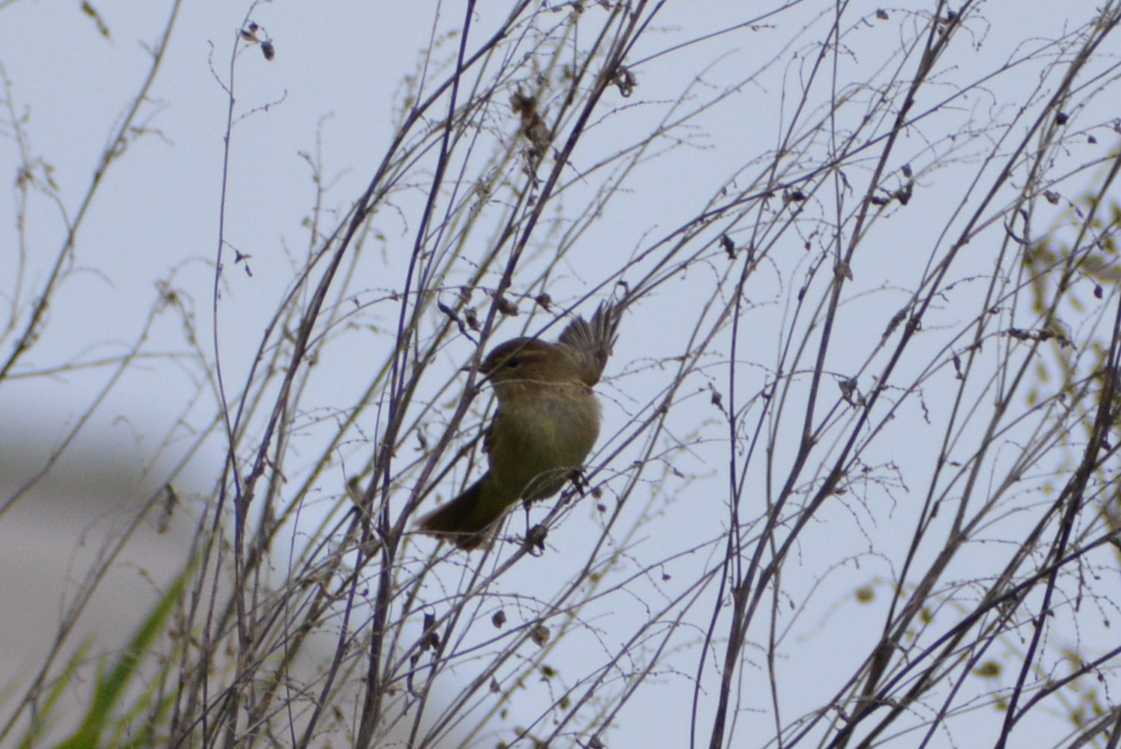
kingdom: Animalia
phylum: Chordata
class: Aves
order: Passeriformes
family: Phylloscopidae
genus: Phylloscopus
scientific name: Phylloscopus collybita
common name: Common chiffchaff
